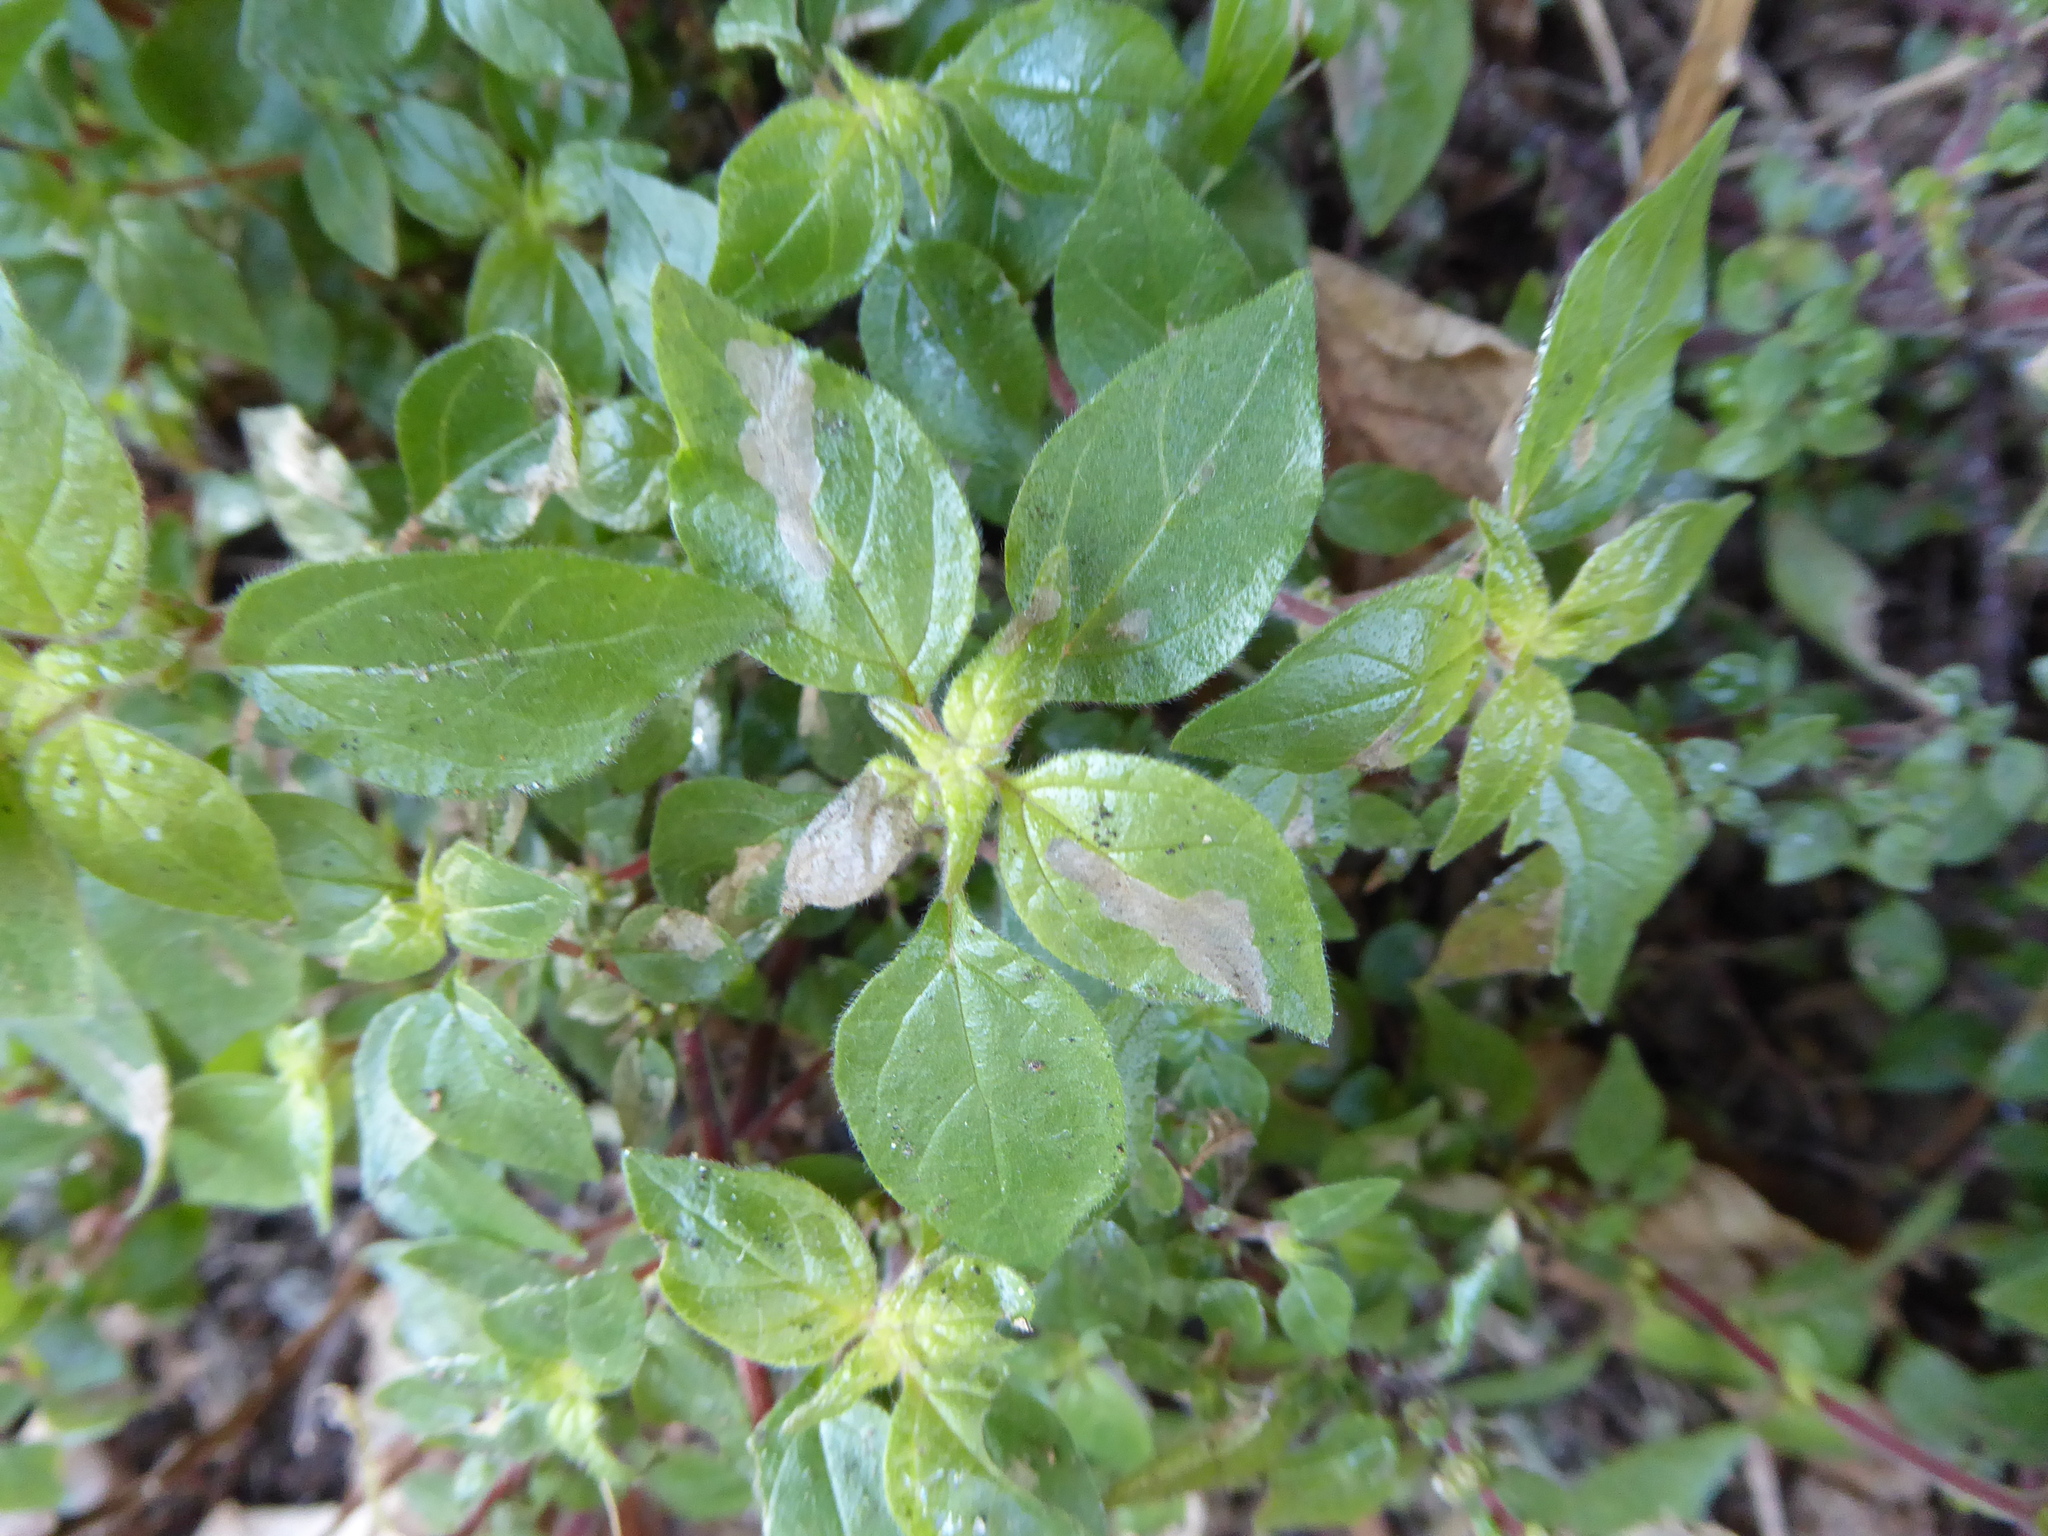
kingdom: Plantae
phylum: Tracheophyta
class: Magnoliopsida
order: Rosales
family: Urticaceae
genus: Parietaria
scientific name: Parietaria judaica
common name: Pellitory-of-the-wall
